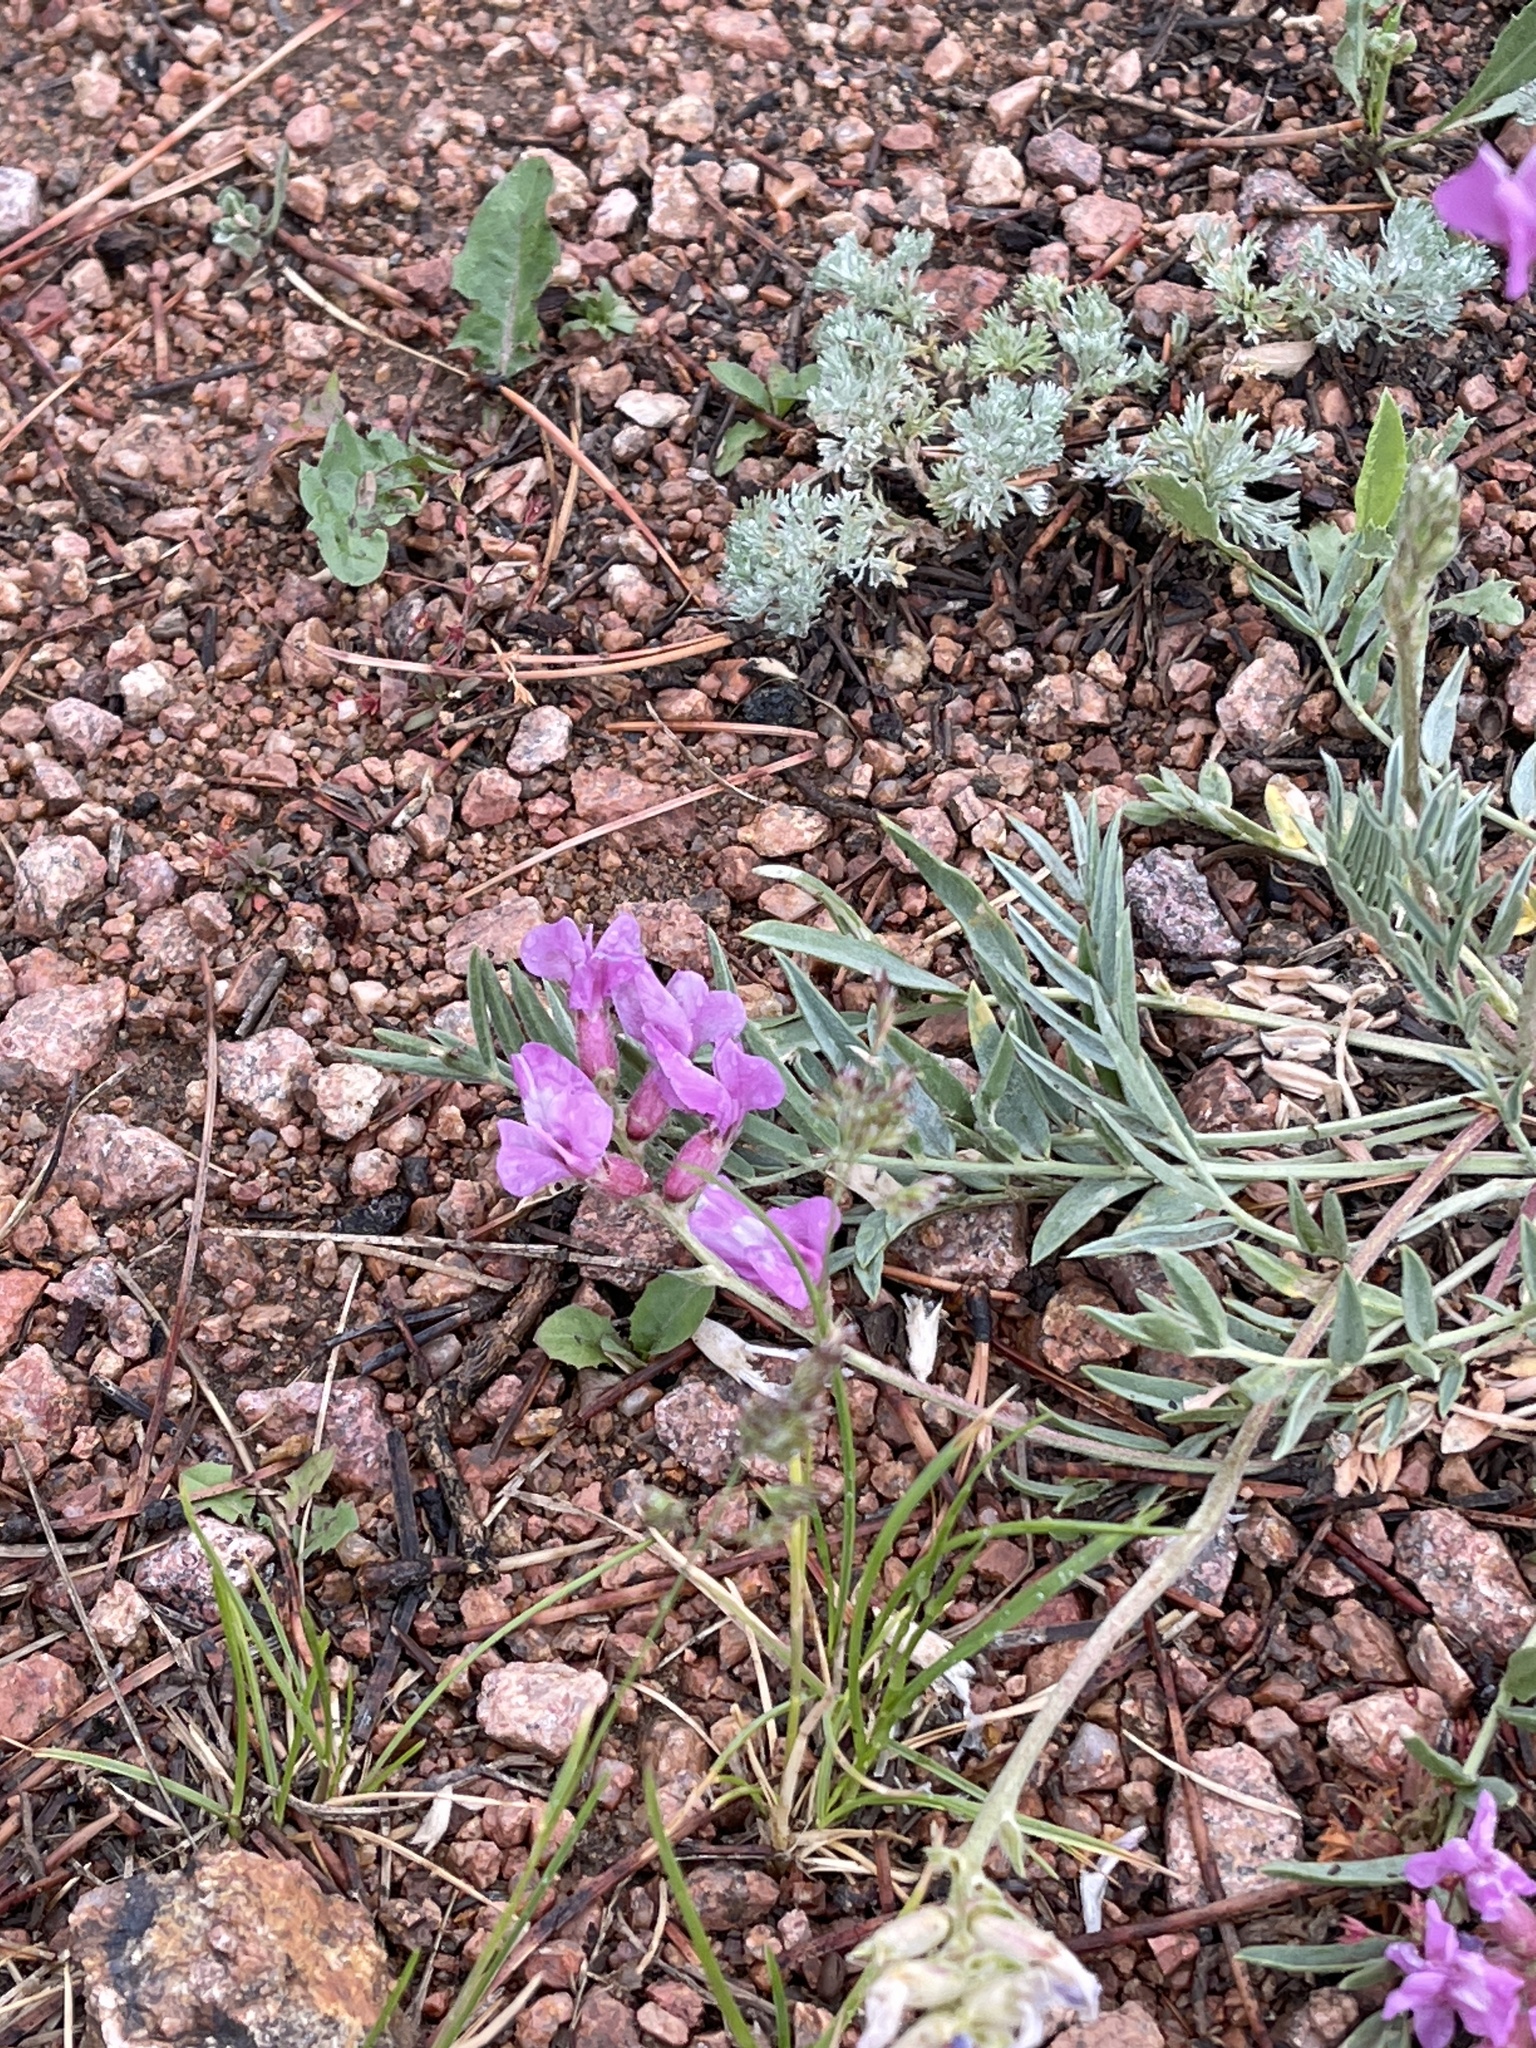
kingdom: Plantae
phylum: Tracheophyta
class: Magnoliopsida
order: Fabales
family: Fabaceae
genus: Oxytropis
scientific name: Oxytropis lambertii
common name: Purple locoweed
